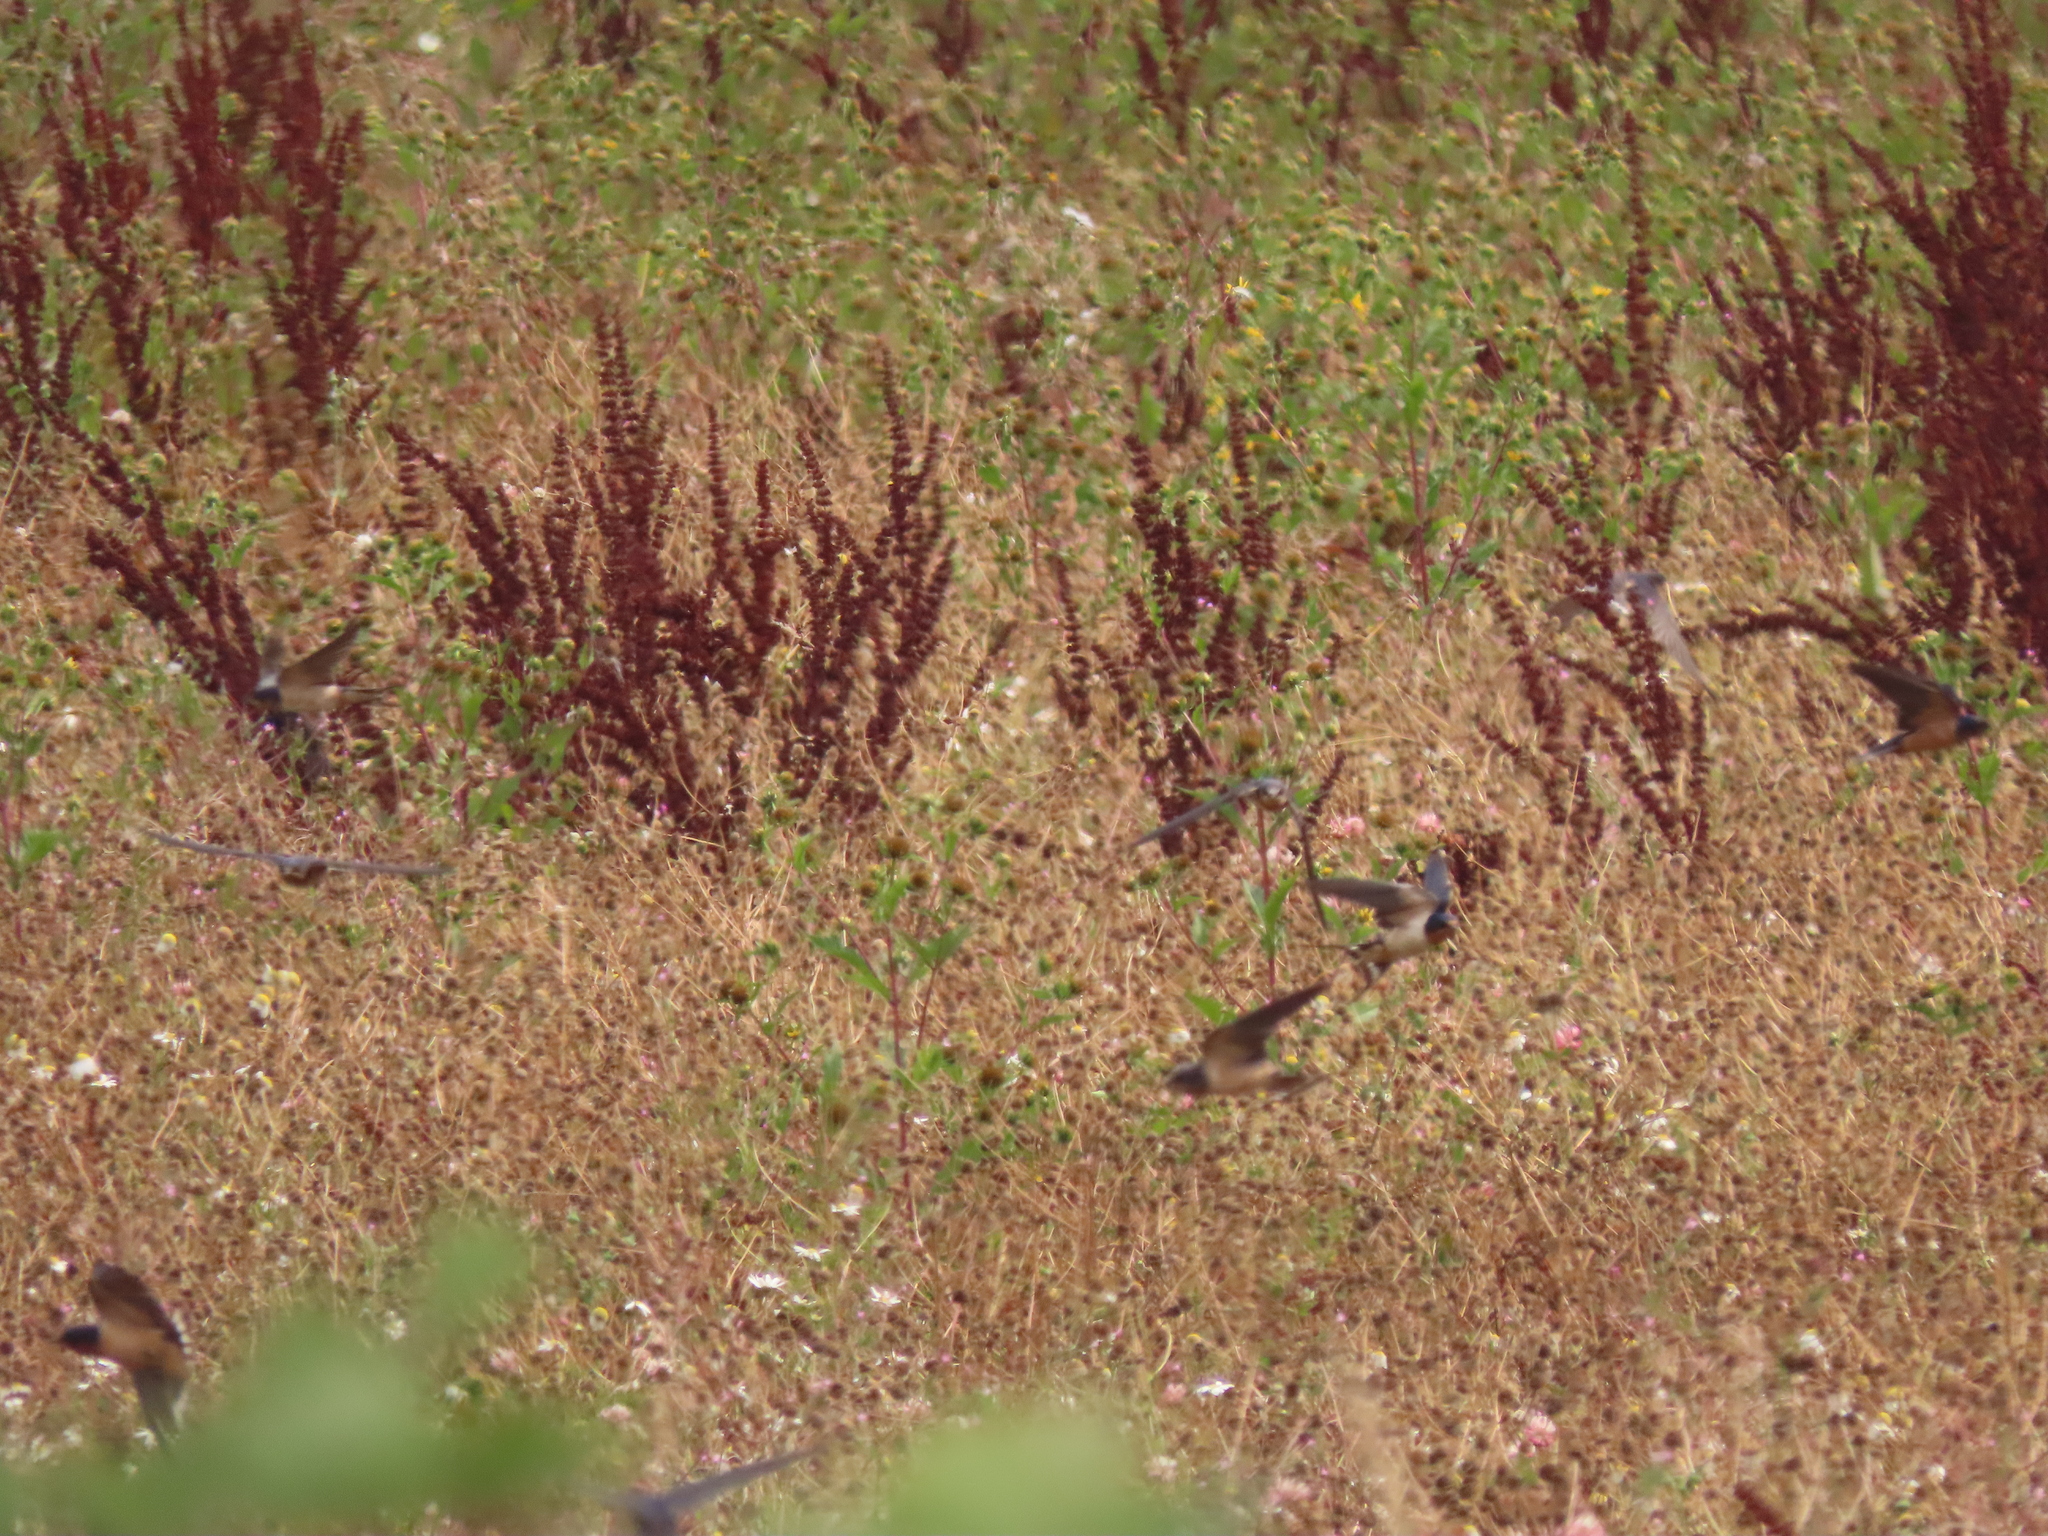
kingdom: Animalia
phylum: Chordata
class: Aves
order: Passeriformes
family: Hirundinidae
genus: Hirundo
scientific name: Hirundo rustica
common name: Barn swallow
